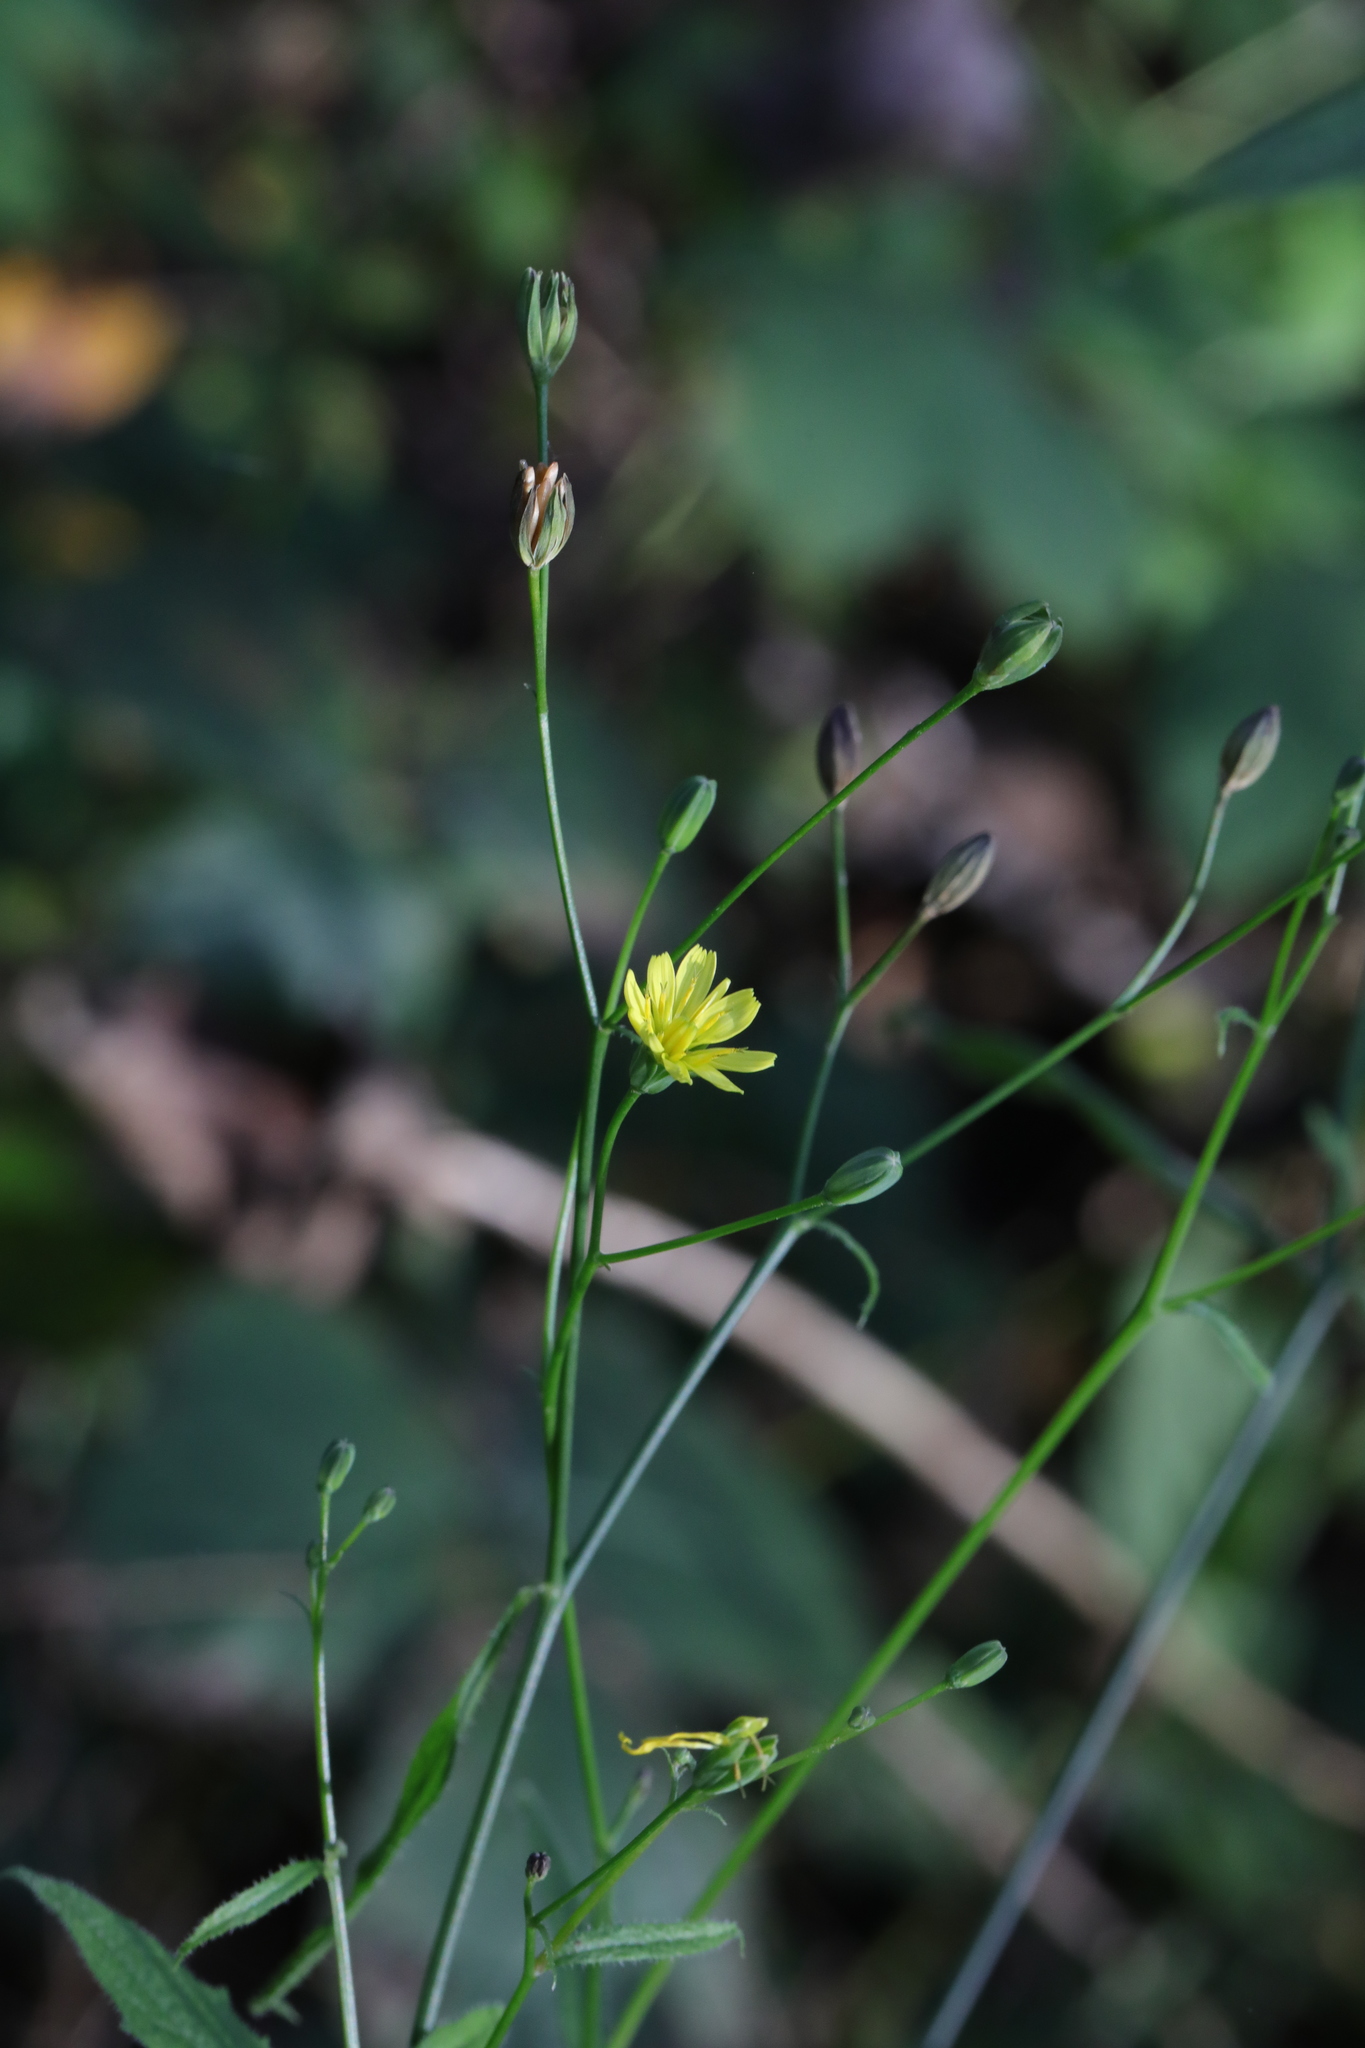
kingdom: Plantae
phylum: Tracheophyta
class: Magnoliopsida
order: Asterales
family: Asteraceae
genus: Lapsana
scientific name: Lapsana communis
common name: Nipplewort
